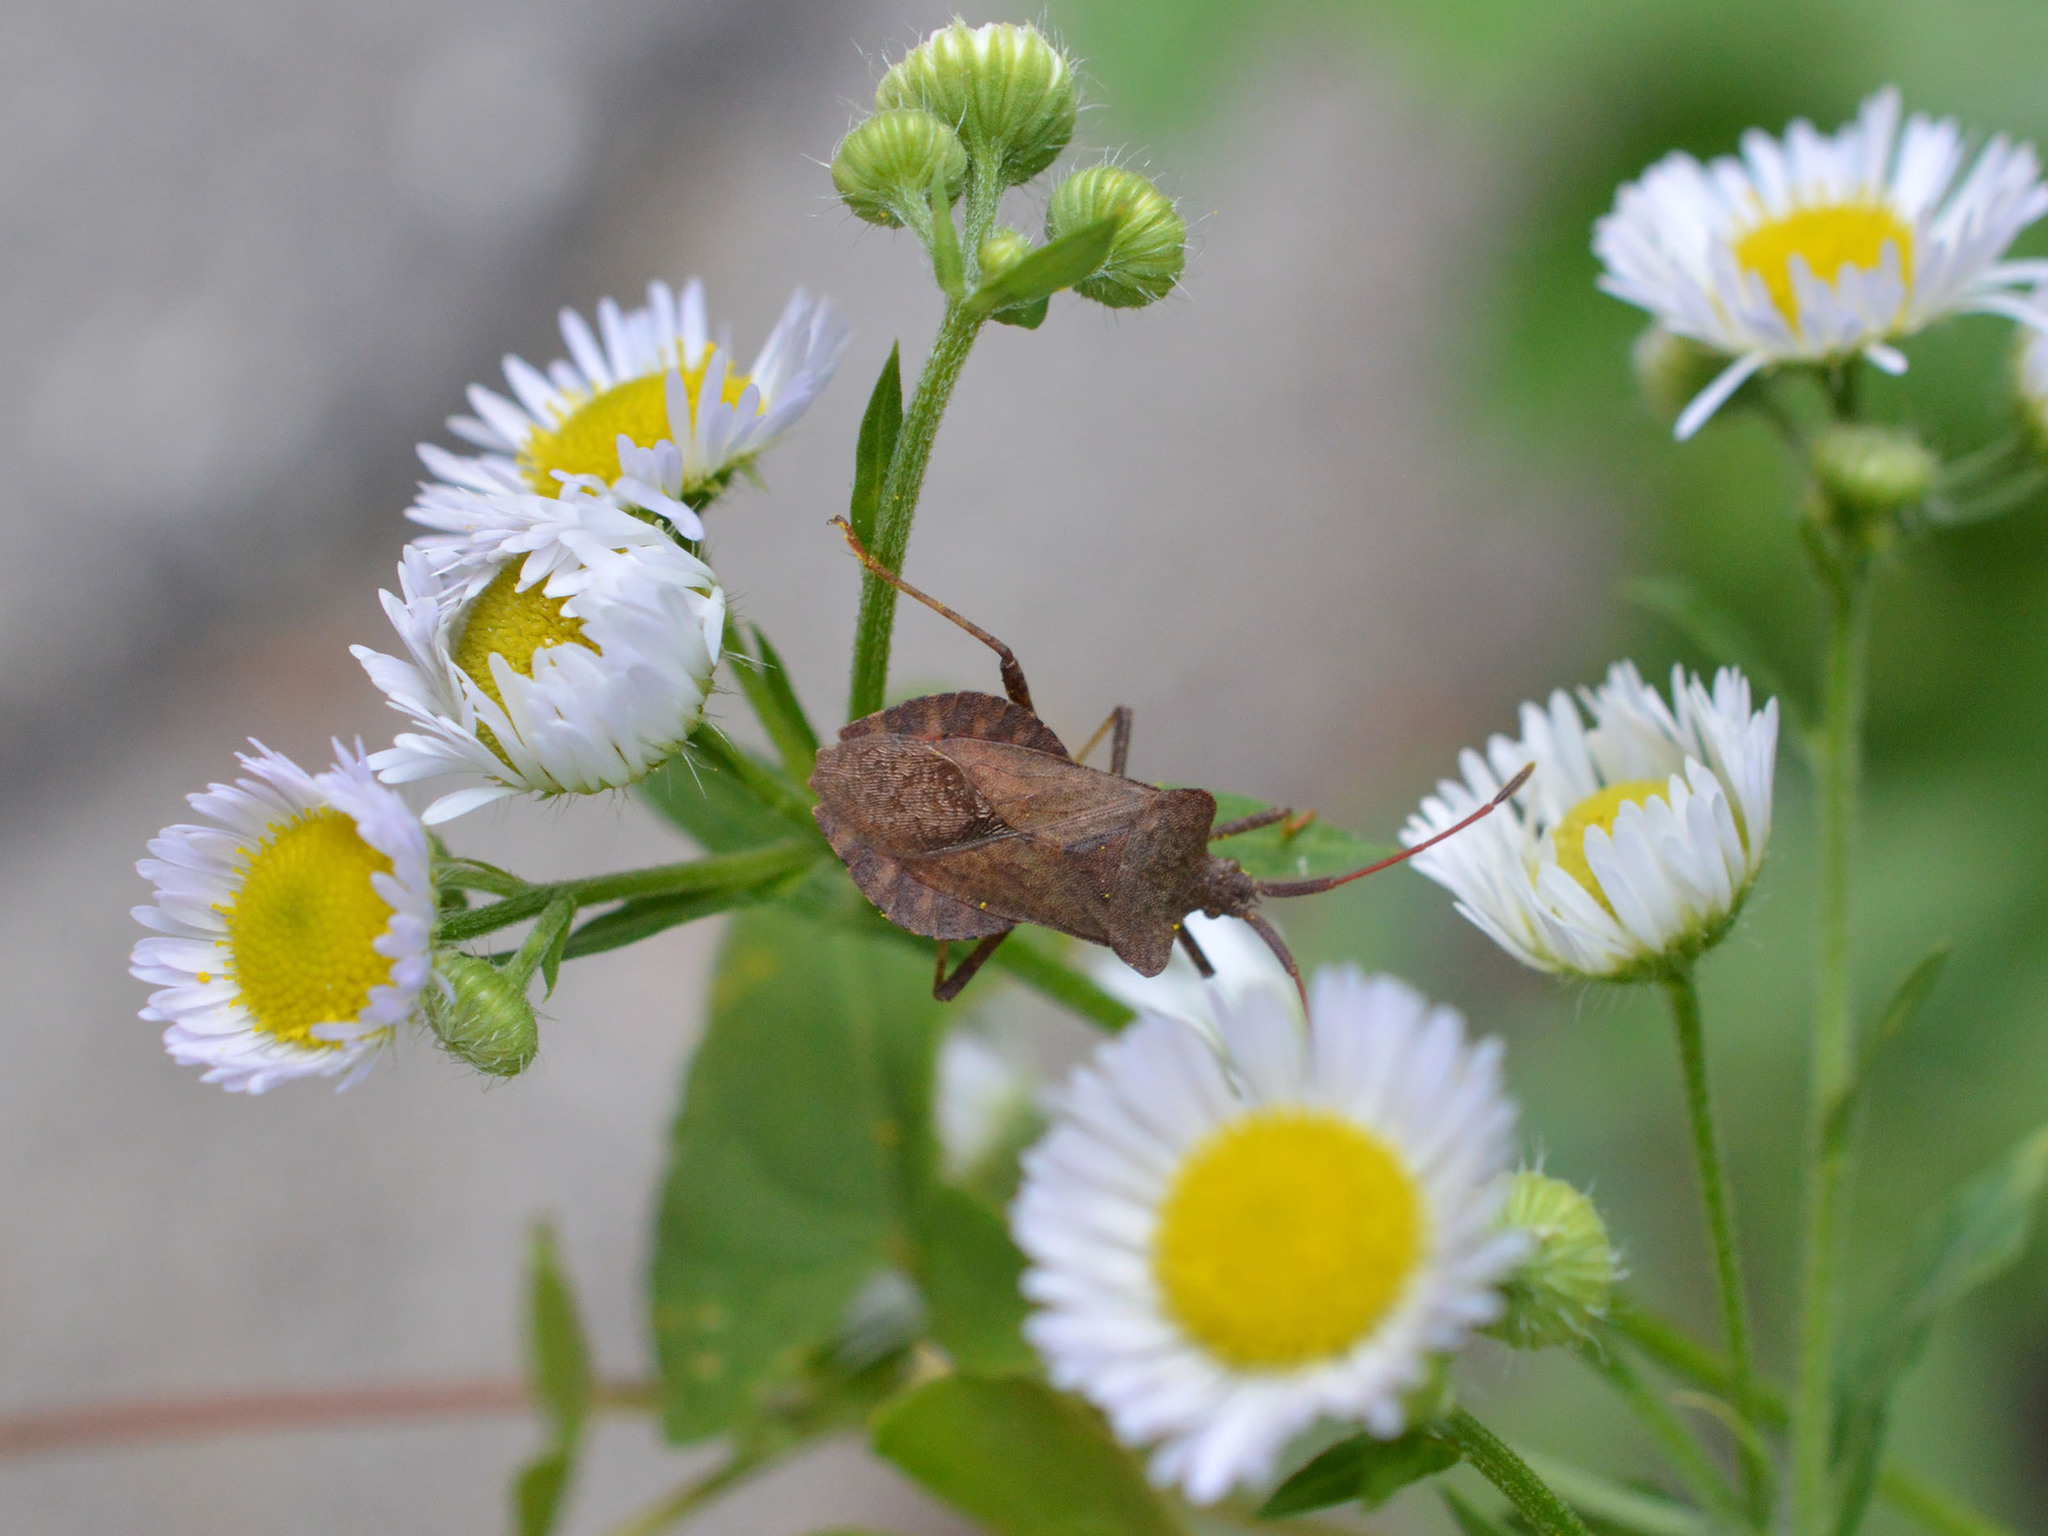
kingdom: Animalia
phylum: Arthropoda
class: Insecta
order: Hemiptera
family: Coreidae
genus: Coreus
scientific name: Coreus marginatus
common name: Dock bug
